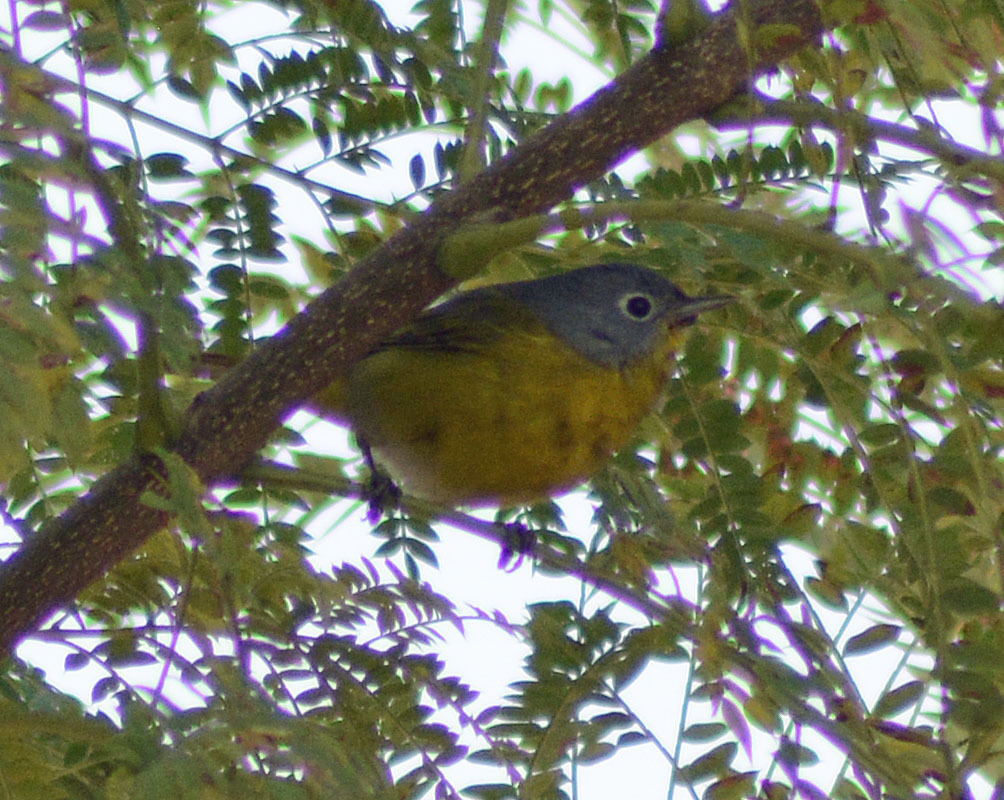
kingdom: Animalia
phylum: Chordata
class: Aves
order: Passeriformes
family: Parulidae
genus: Leiothlypis
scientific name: Leiothlypis ruficapilla
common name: Nashville warbler
